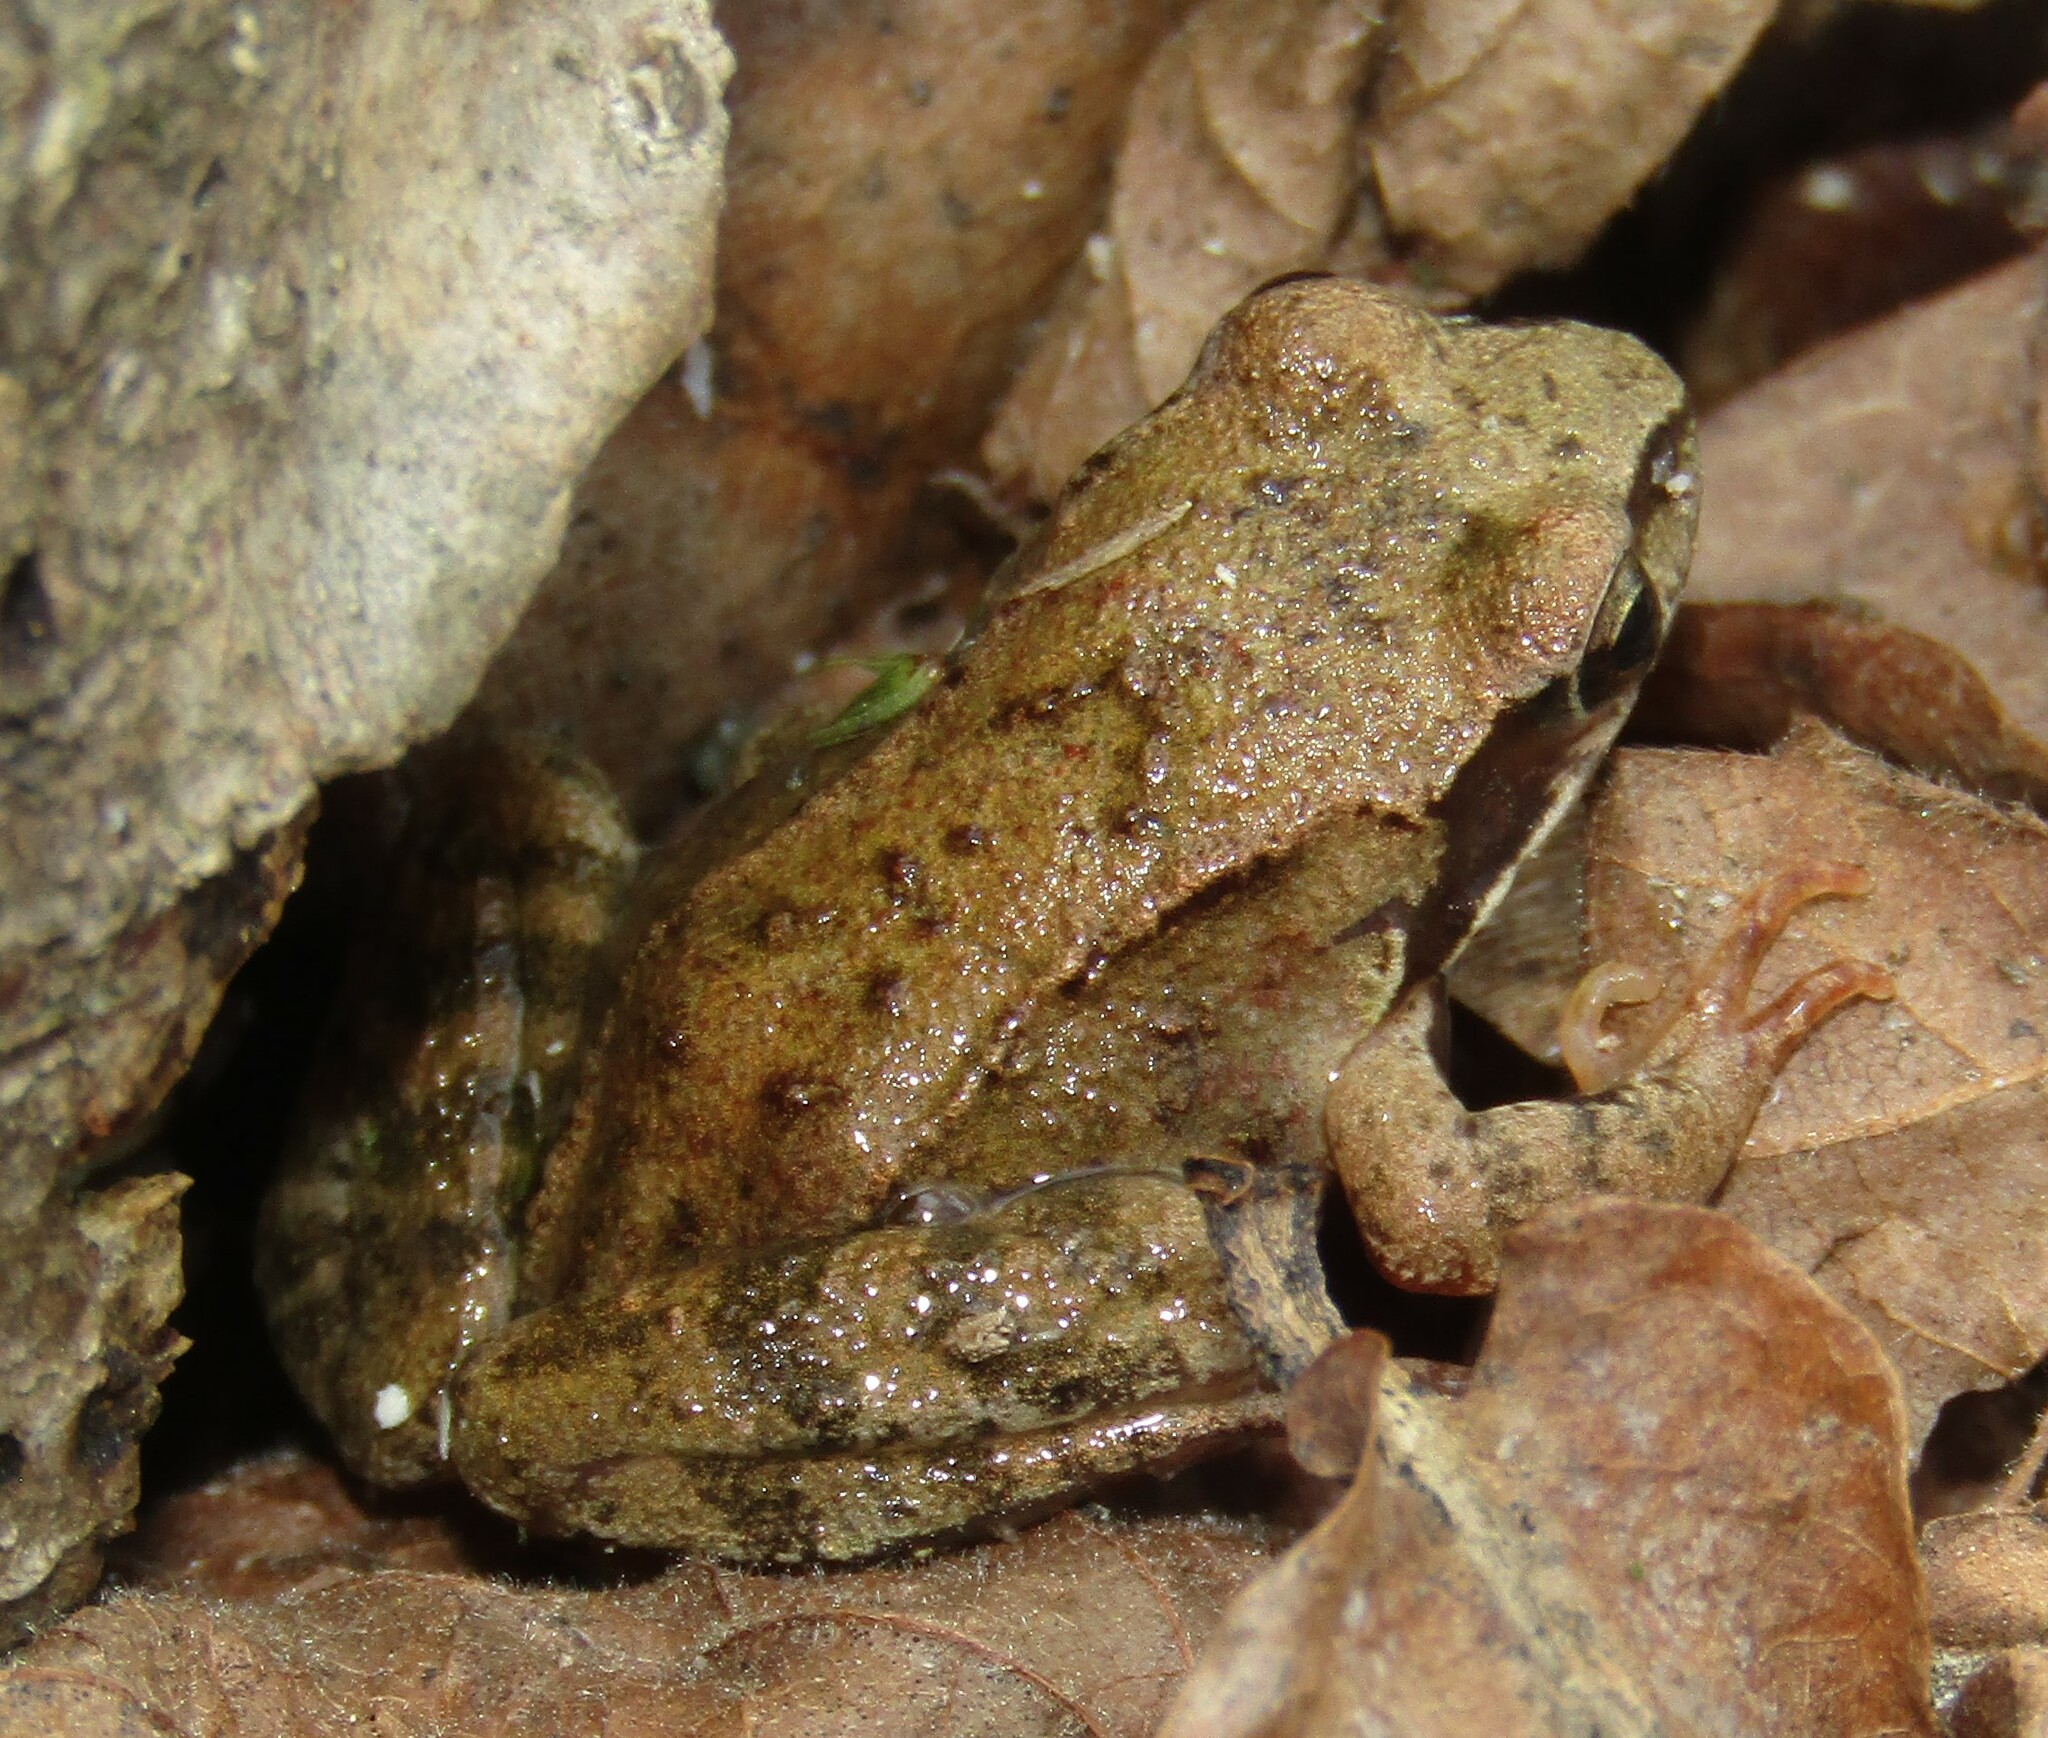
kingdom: Animalia
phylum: Chordata
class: Amphibia
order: Anura
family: Ranidae
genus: Rana
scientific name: Rana temporaria
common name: Common frog
